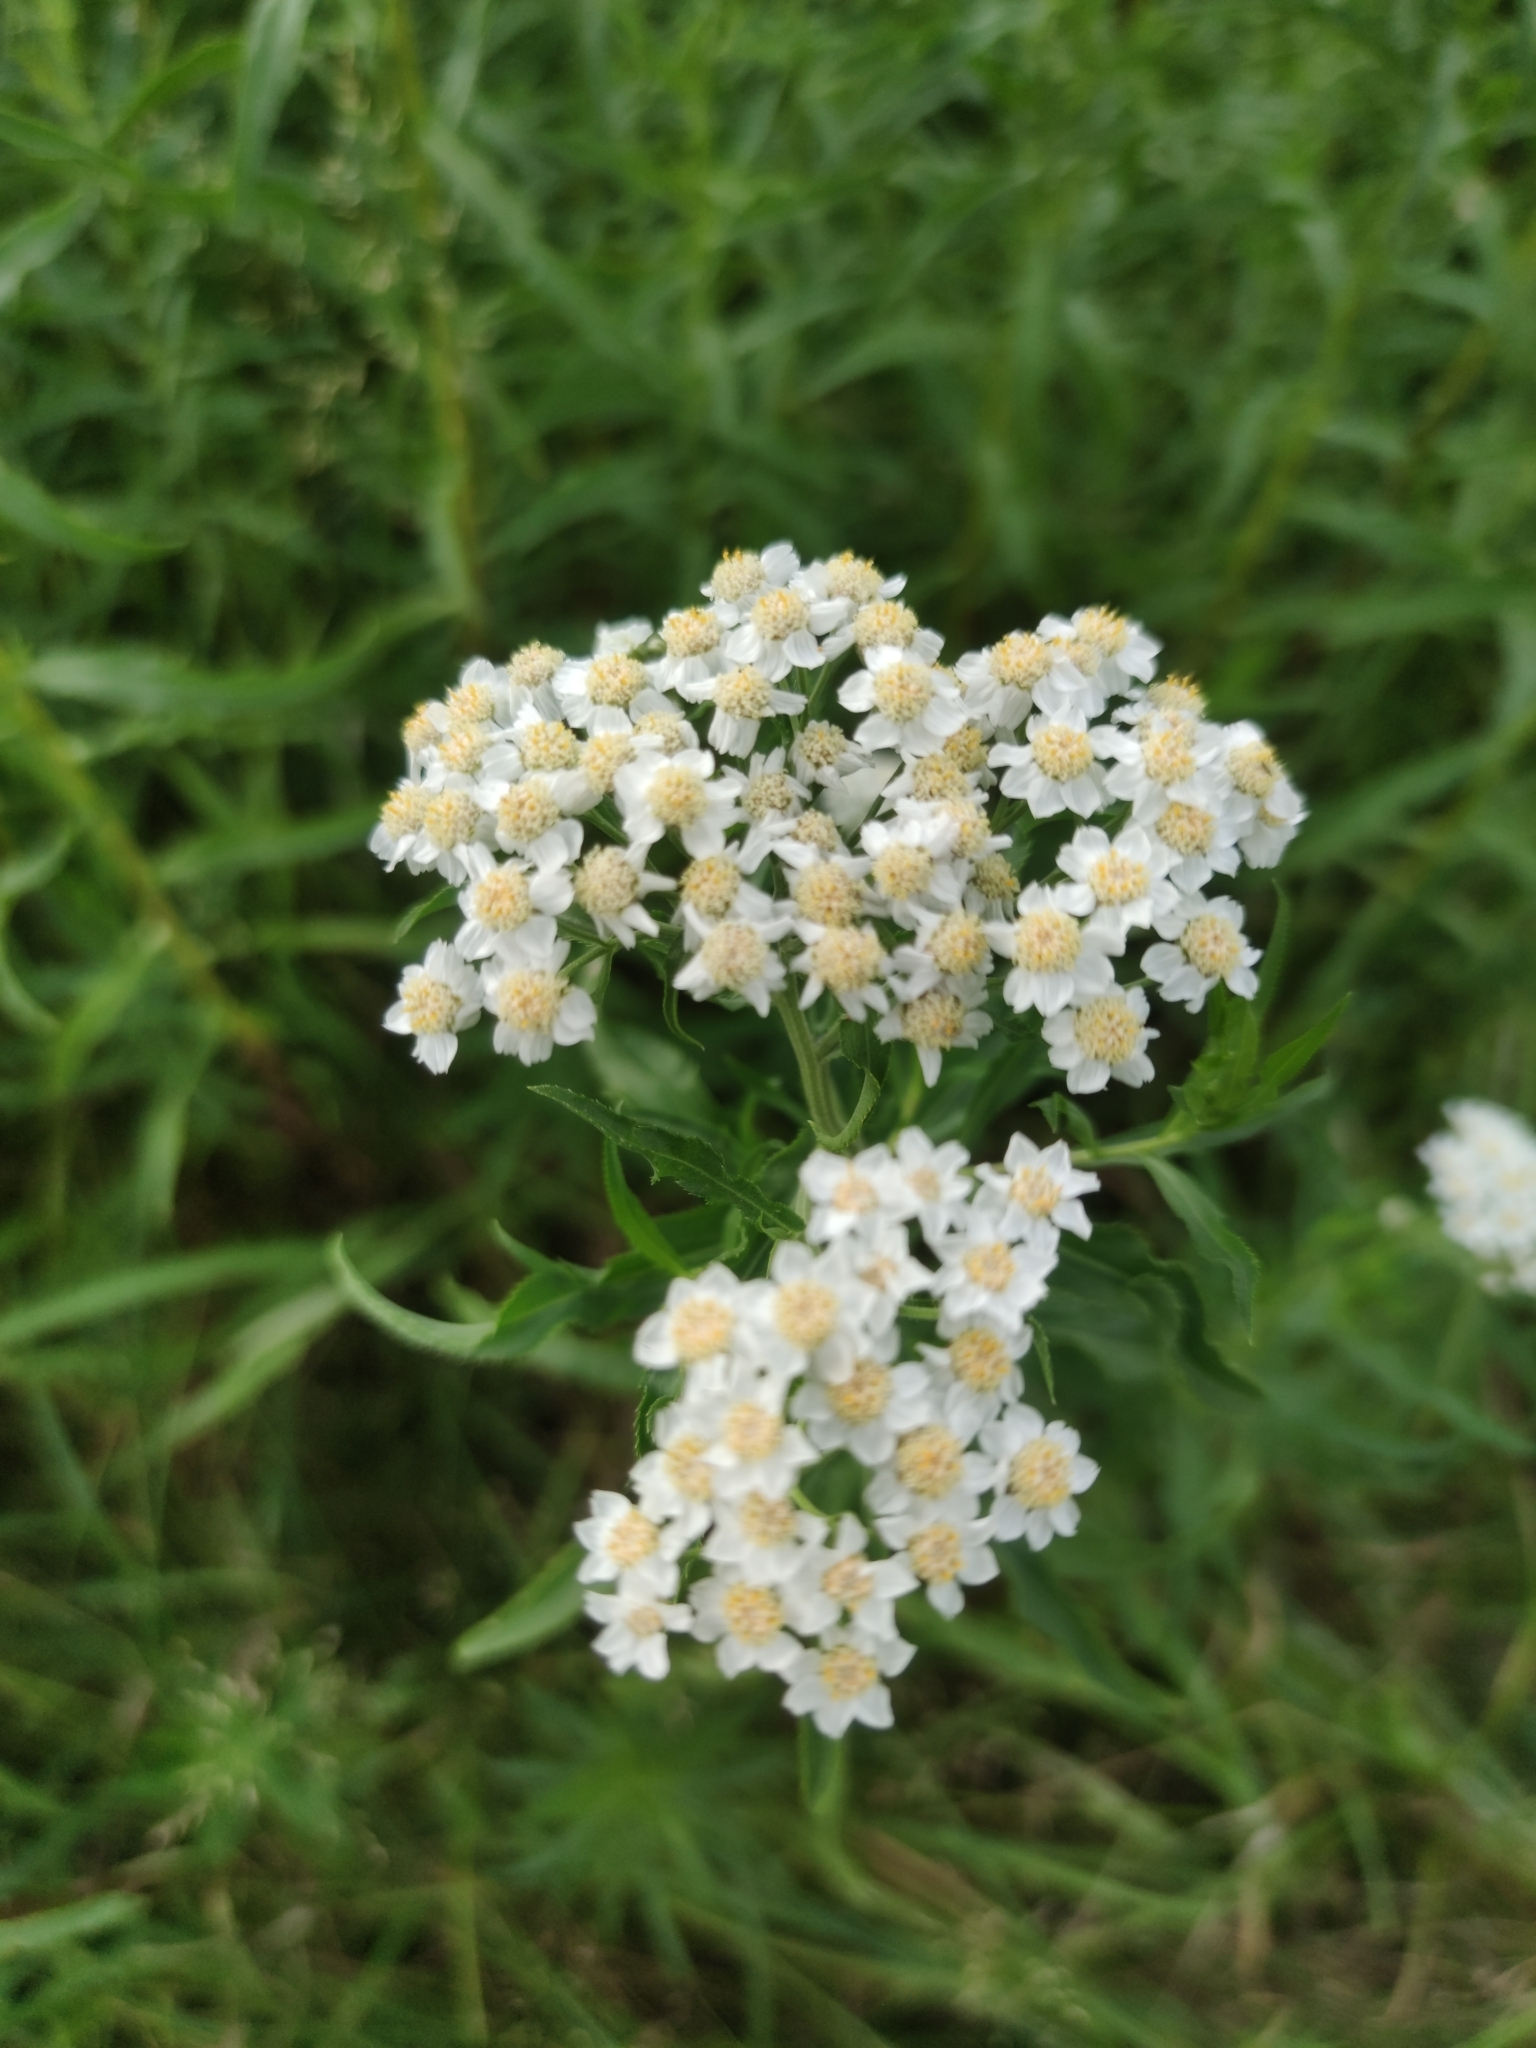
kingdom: Plantae
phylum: Tracheophyta
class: Magnoliopsida
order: Asterales
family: Asteraceae
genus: Achillea
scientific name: Achillea salicifolia
